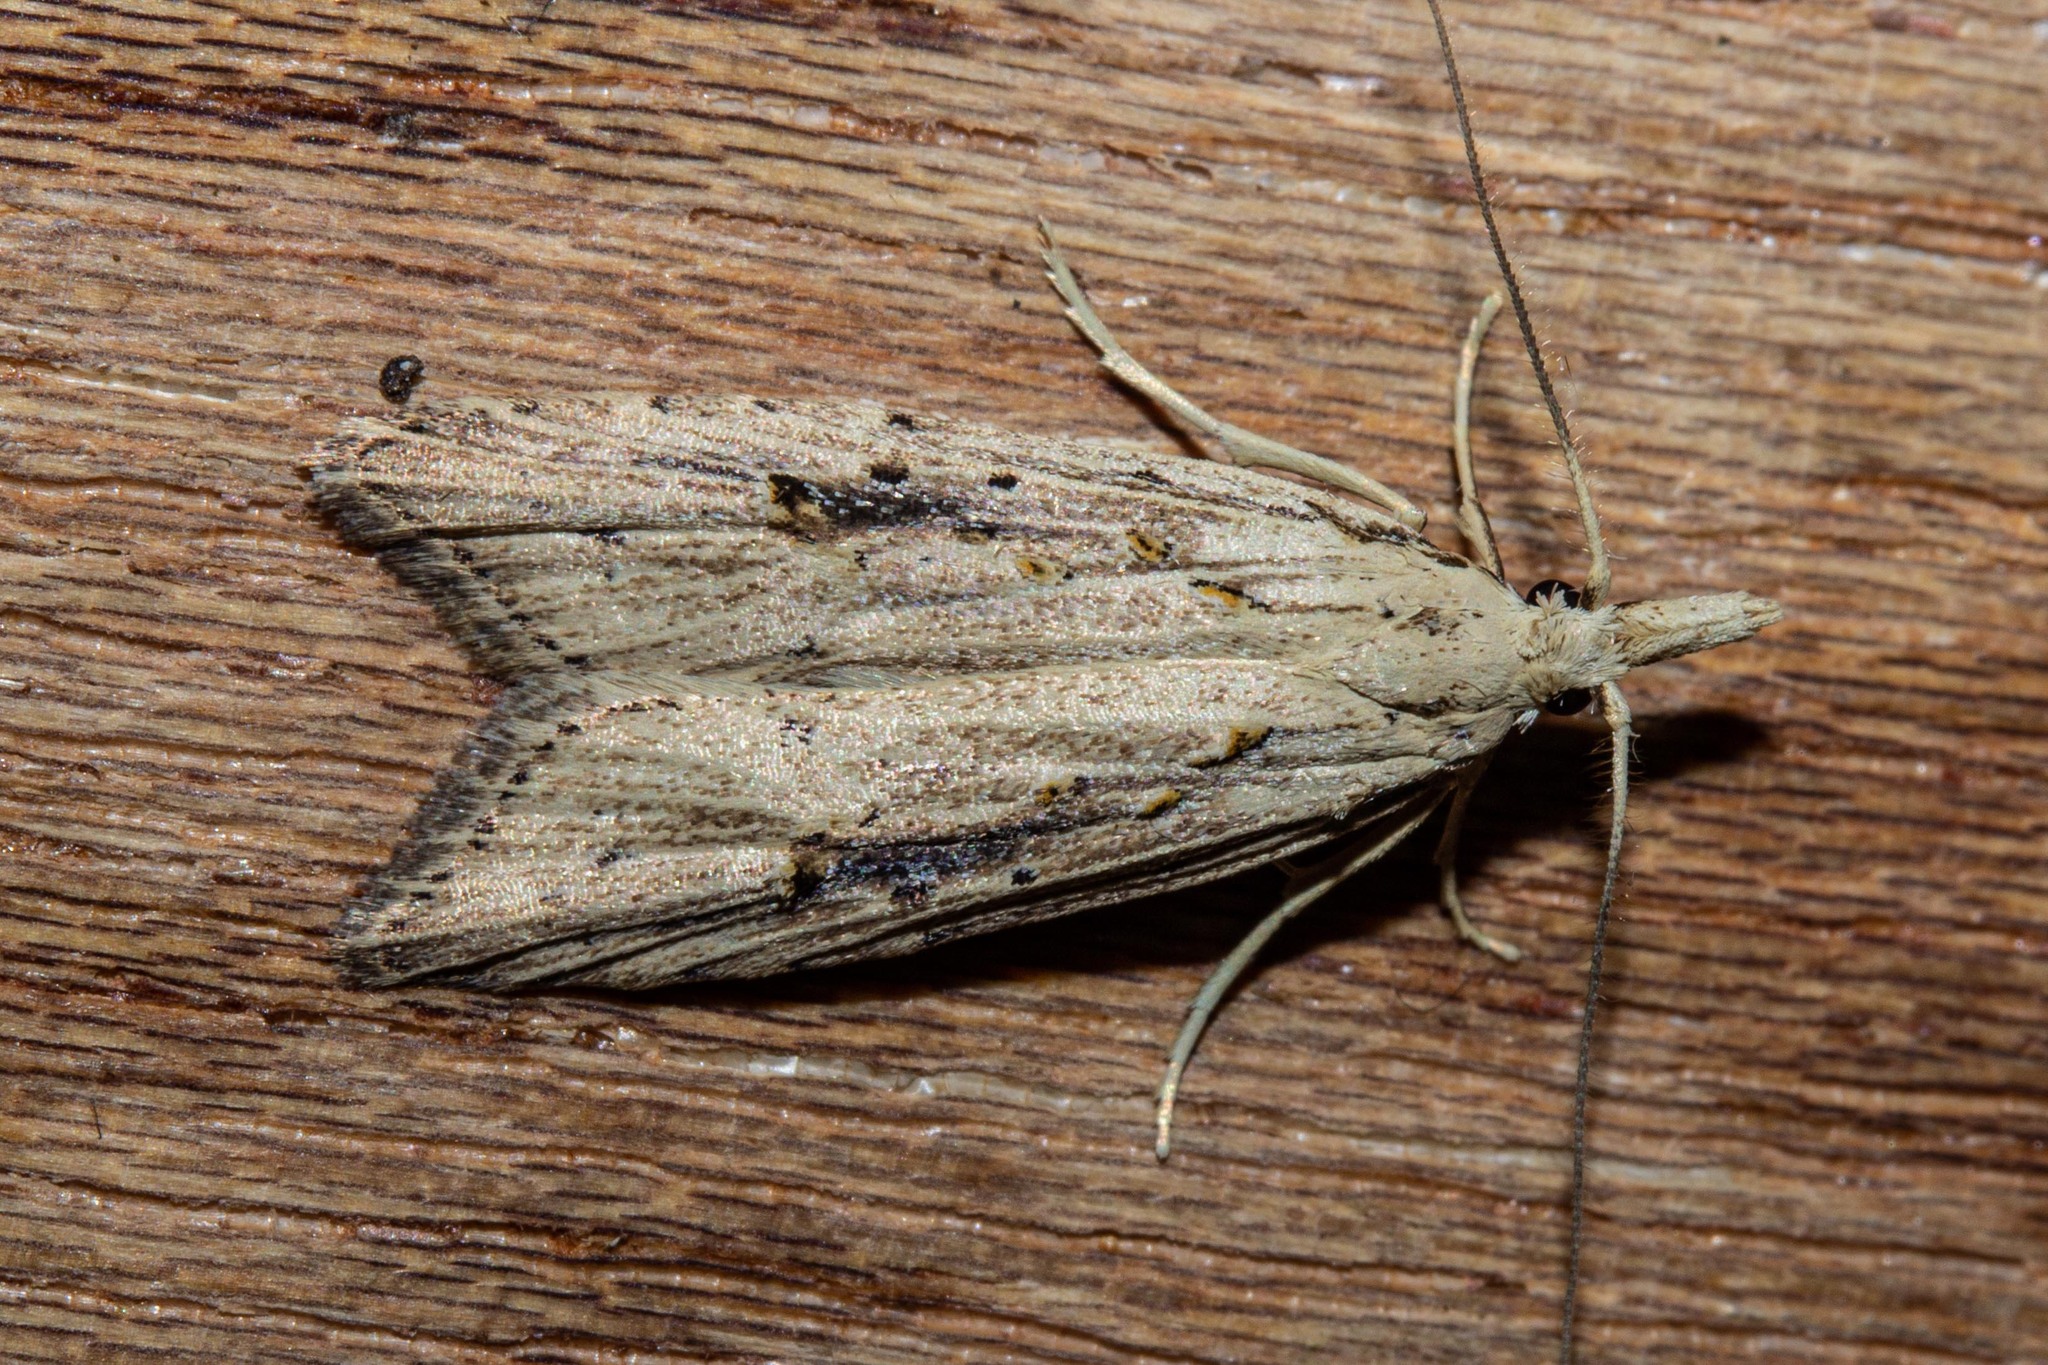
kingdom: Animalia
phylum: Arthropoda
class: Insecta
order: Lepidoptera
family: Carposinidae
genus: Carposina
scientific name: Carposina Heterocrossa exochana
